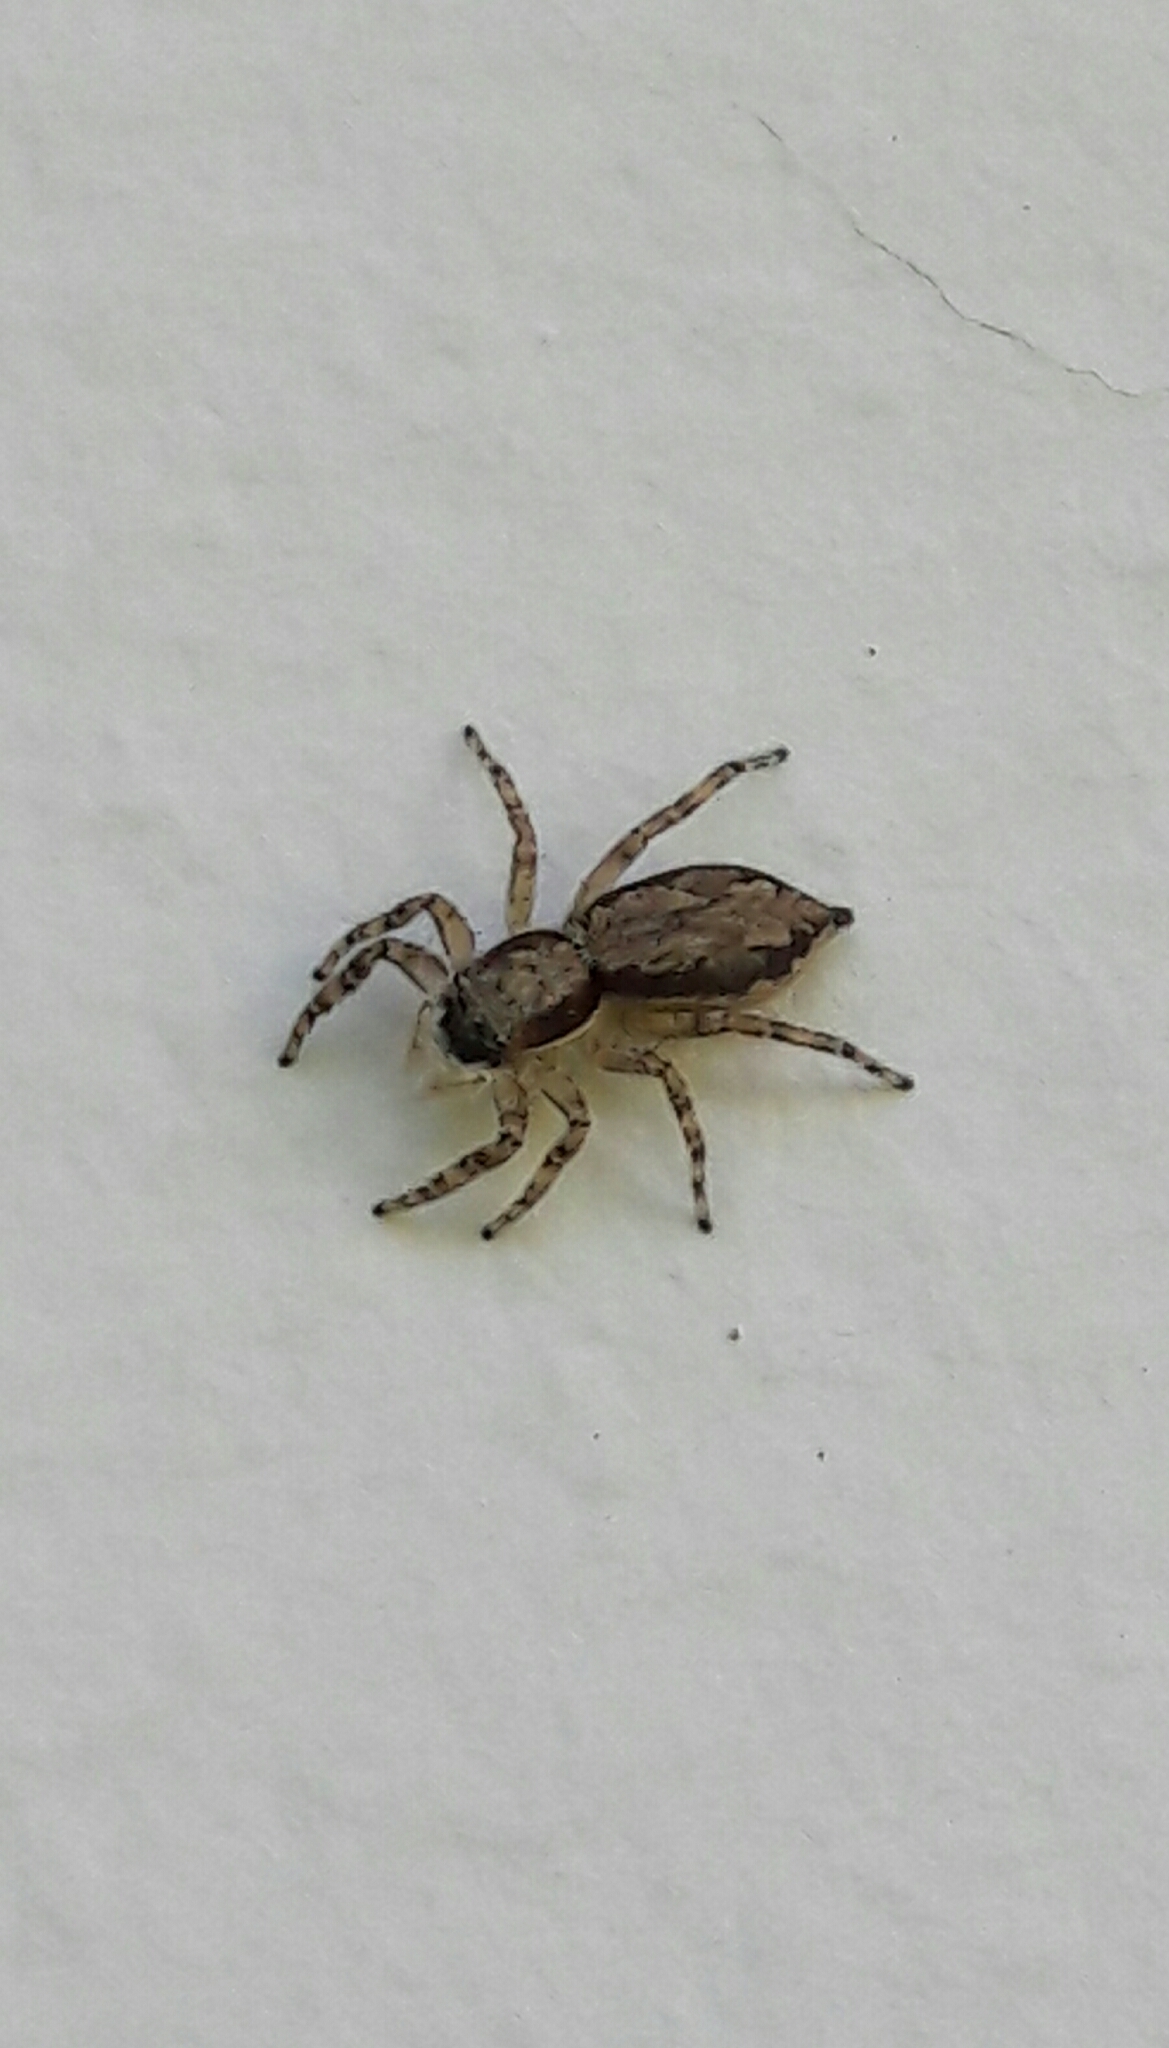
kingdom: Animalia
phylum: Arthropoda
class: Arachnida
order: Araneae
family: Salticidae
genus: Menemerus
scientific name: Menemerus bivittatus
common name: Gray wall jumper
